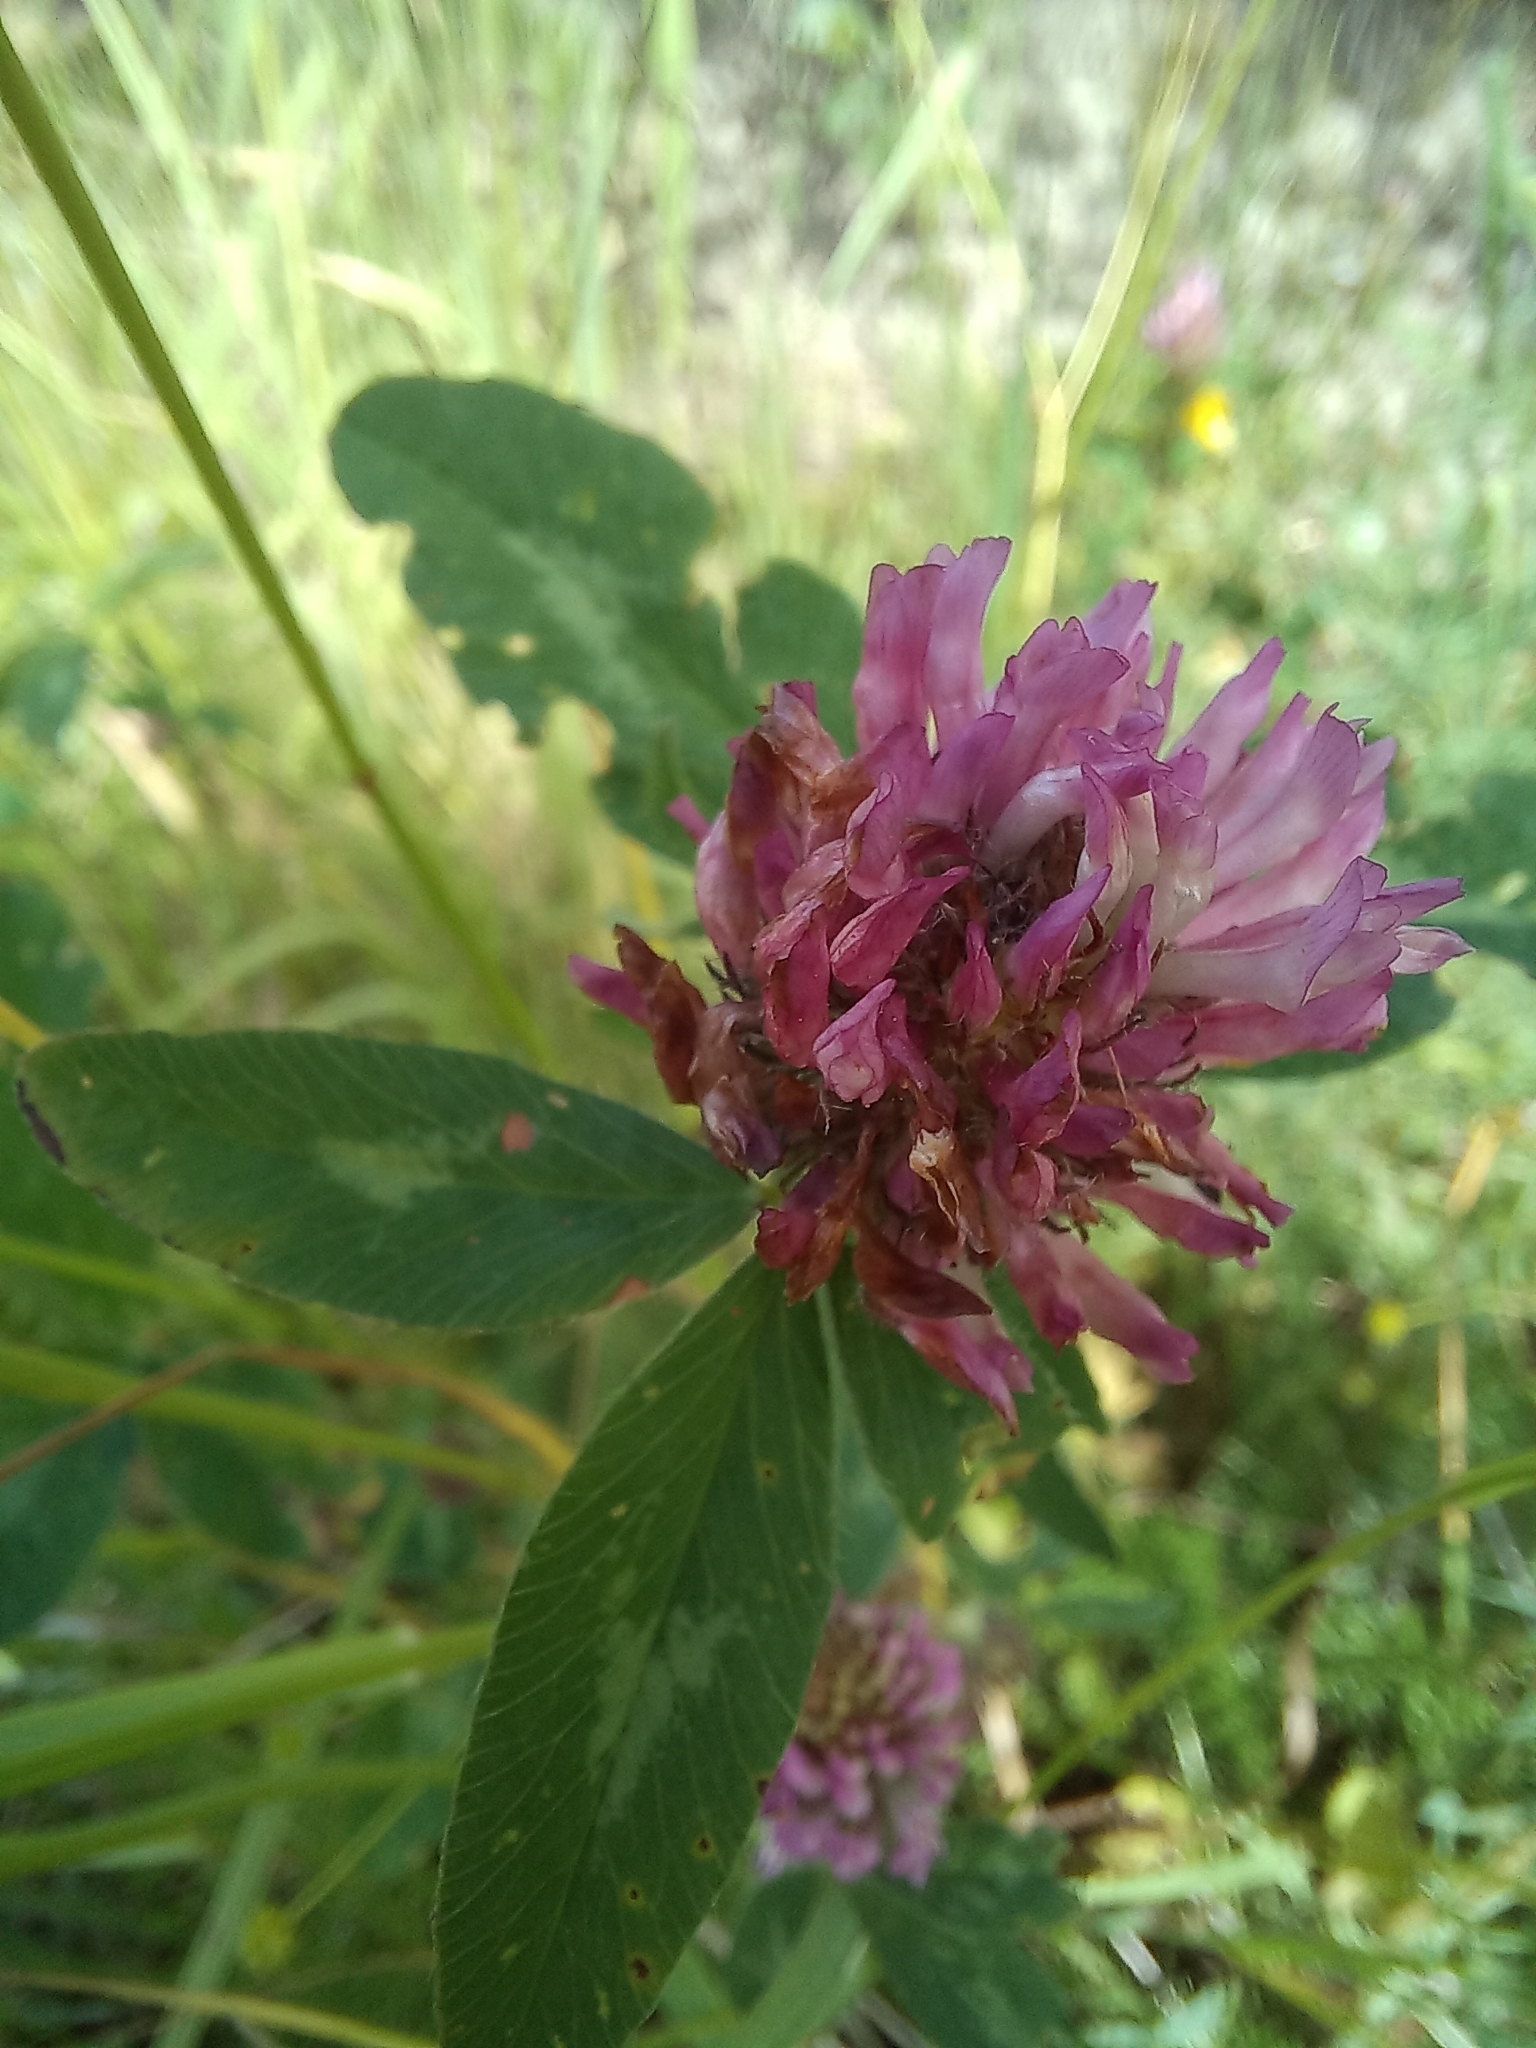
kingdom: Plantae
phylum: Tracheophyta
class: Magnoliopsida
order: Fabales
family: Fabaceae
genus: Trifolium
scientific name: Trifolium pratense
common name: Red clover
